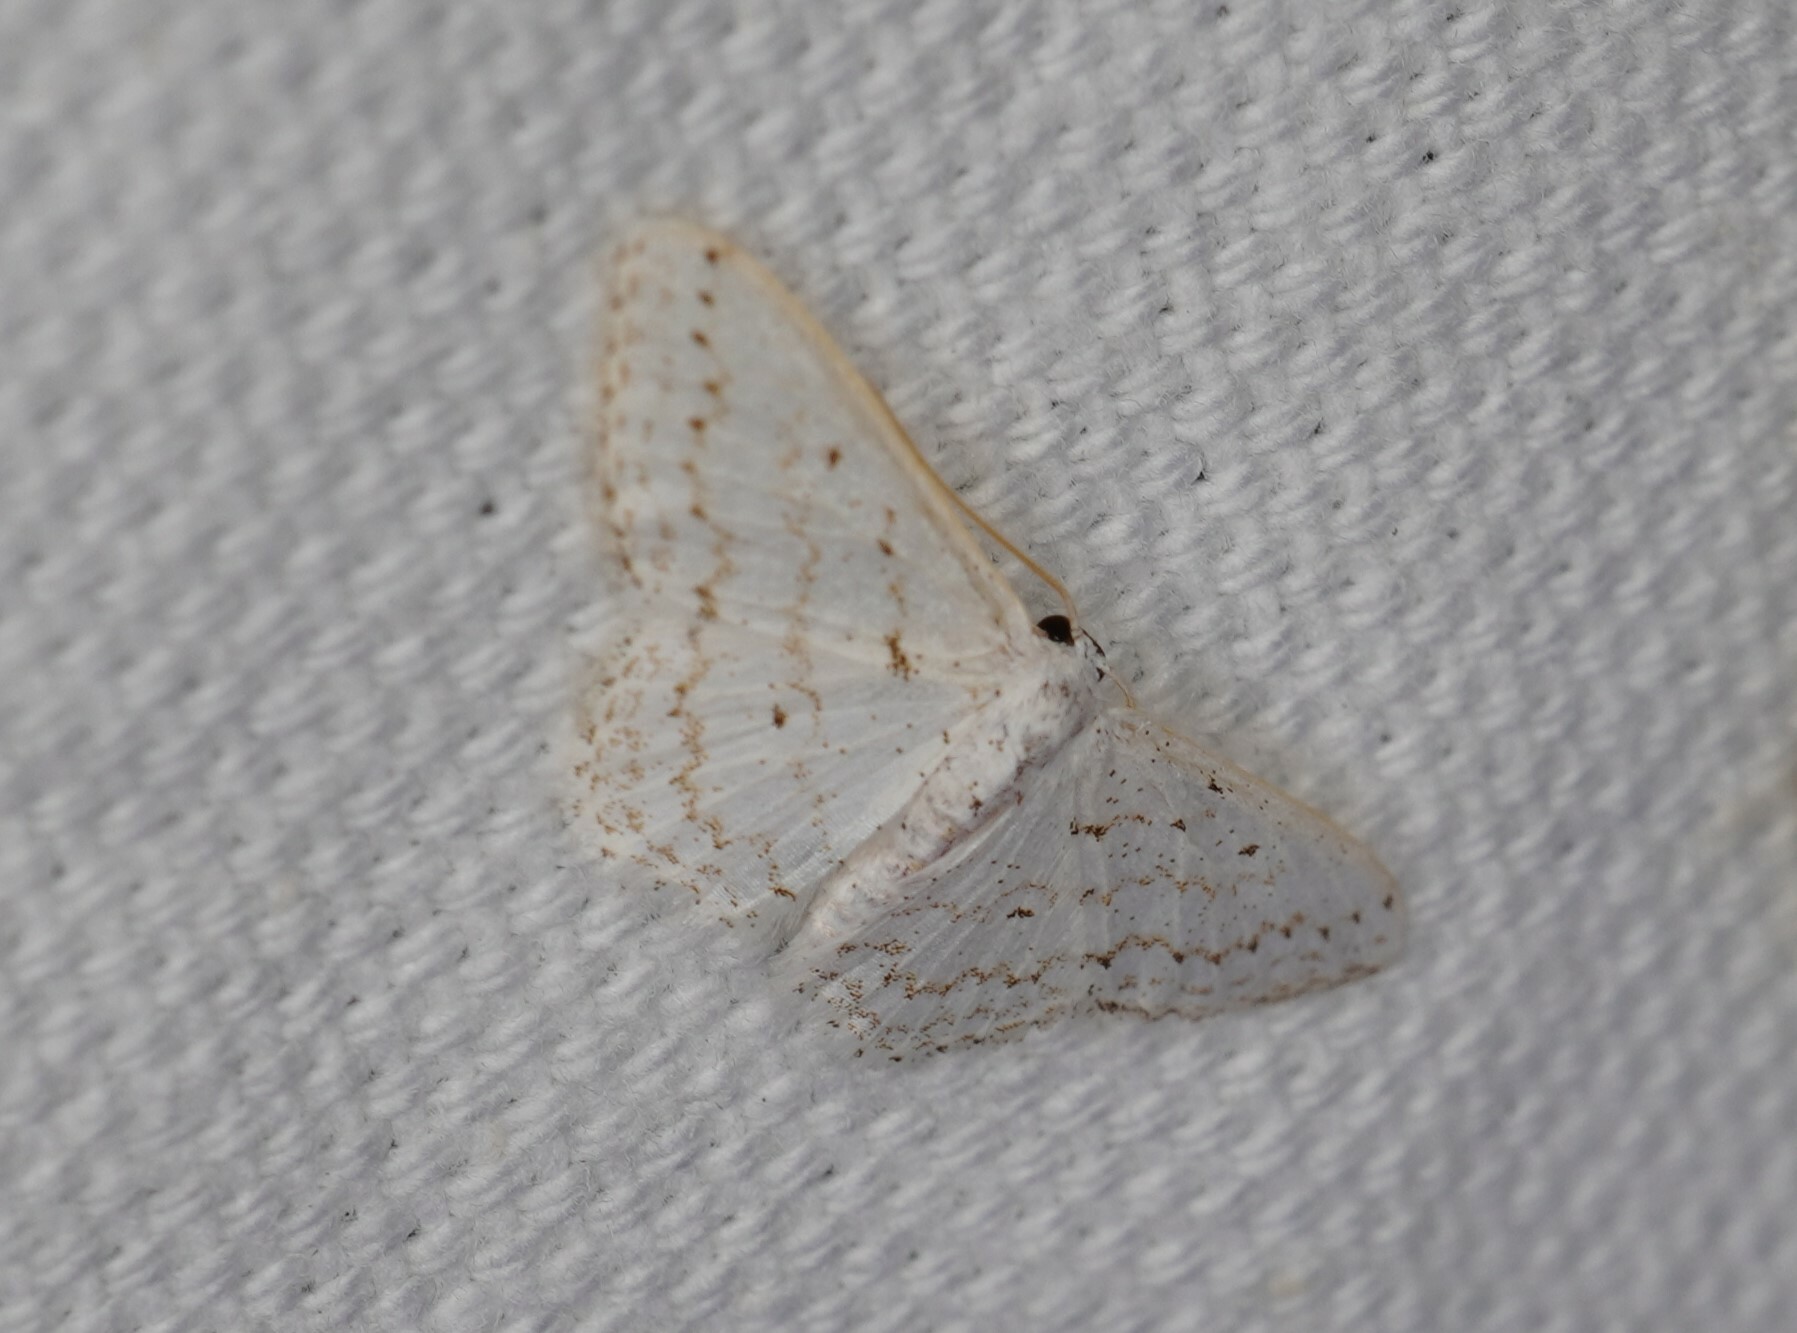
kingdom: Animalia
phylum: Arthropoda
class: Insecta
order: Lepidoptera
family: Geometridae
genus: Idaea
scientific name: Idaea tacturata
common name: Dot-lined wave
